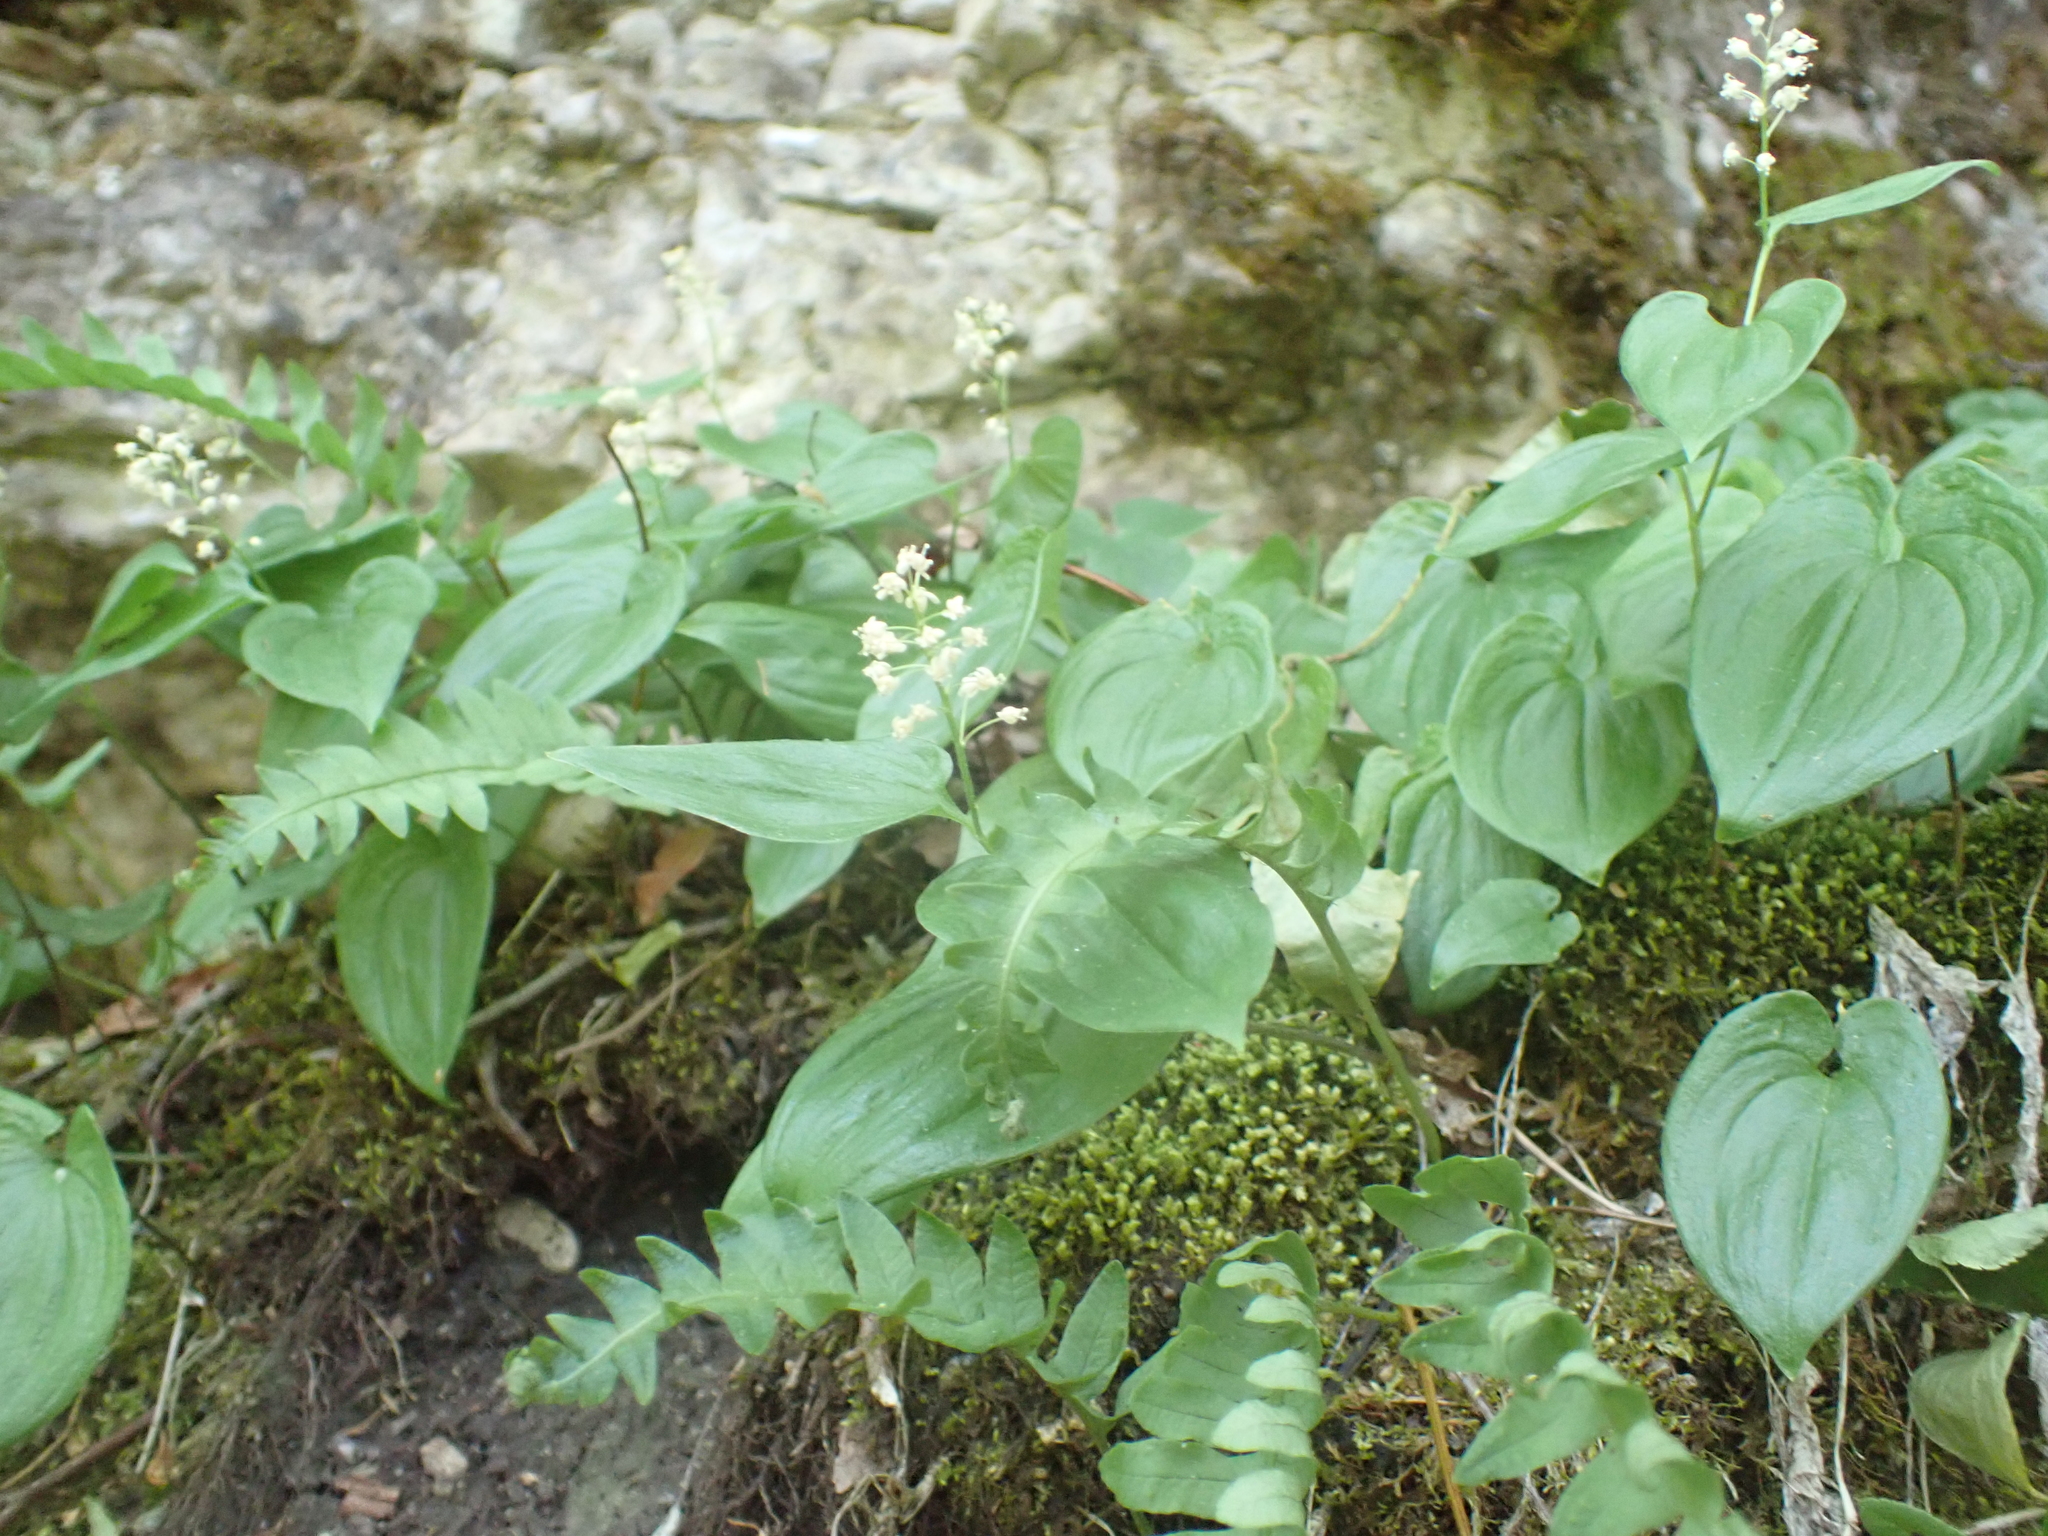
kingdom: Plantae
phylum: Tracheophyta
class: Liliopsida
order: Asparagales
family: Asparagaceae
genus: Maianthemum
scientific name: Maianthemum bifolium
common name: May lily
